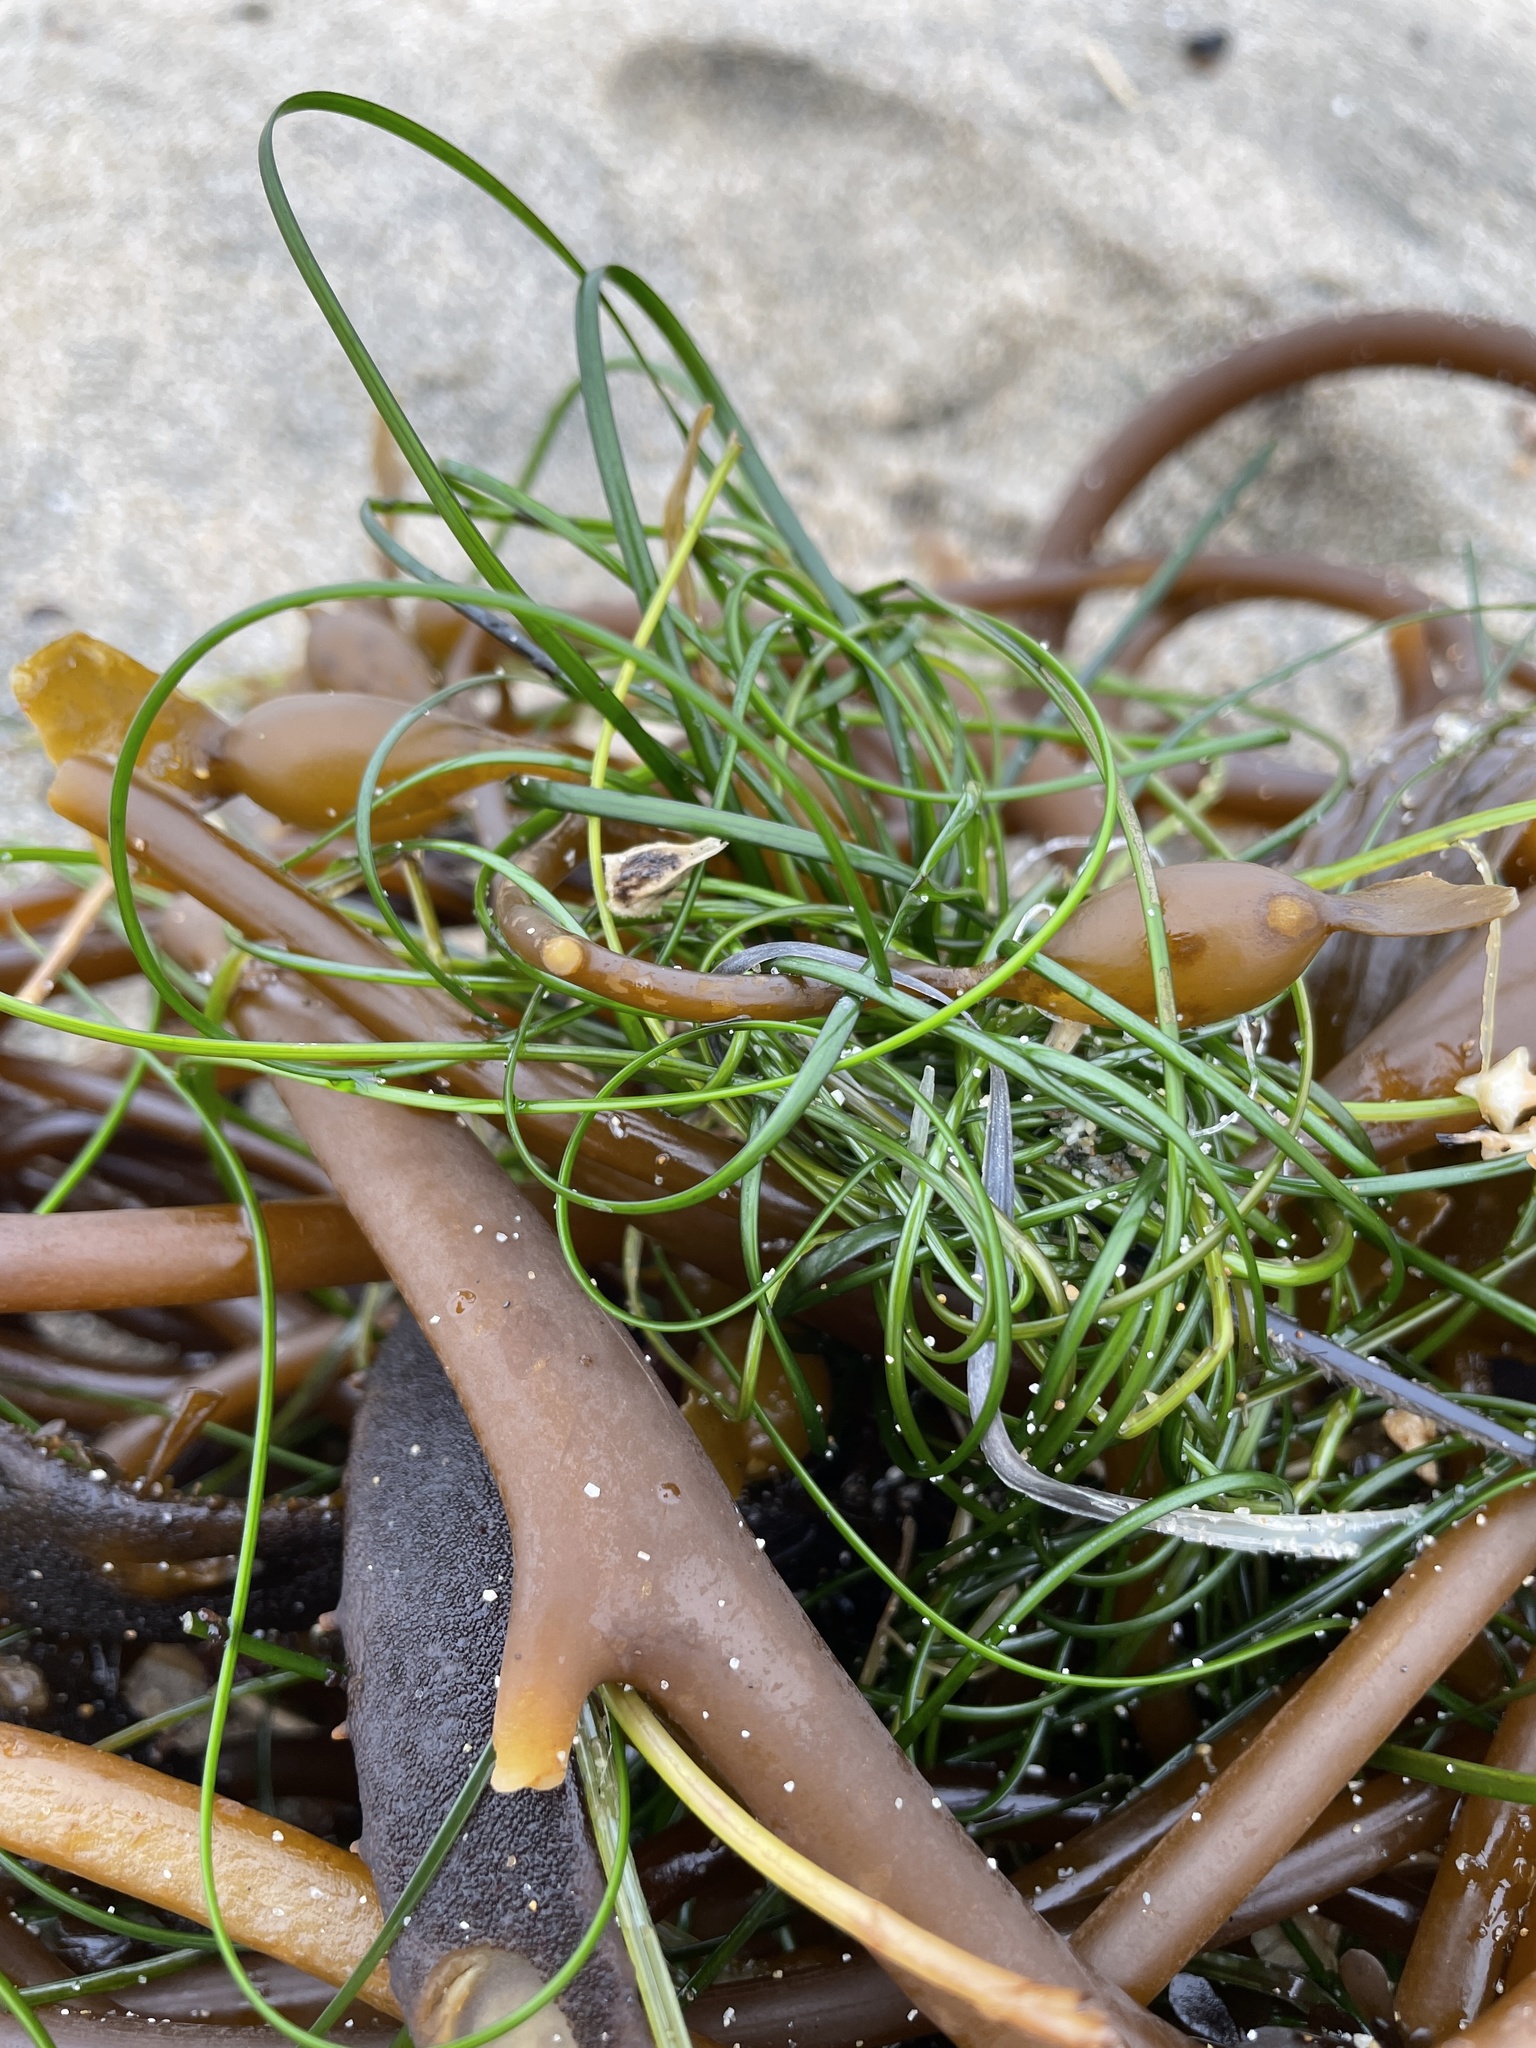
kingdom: Plantae
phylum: Tracheophyta
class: Liliopsida
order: Alismatales
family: Zosteraceae
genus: Phyllospadix
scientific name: Phyllospadix torreyi
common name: Surfgrass
